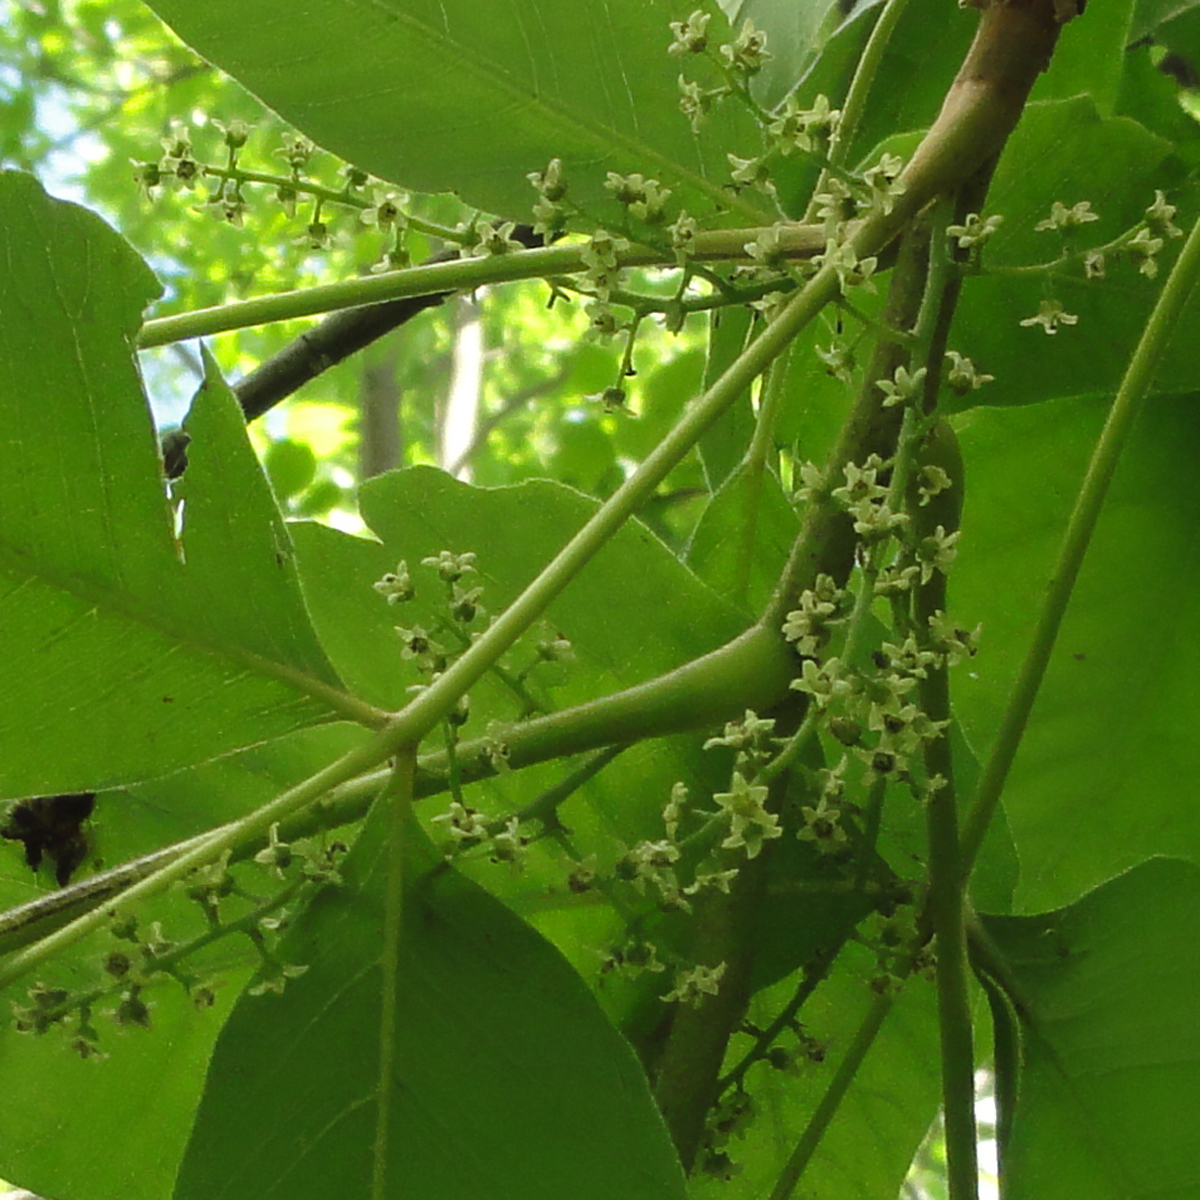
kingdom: Plantae
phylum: Tracheophyta
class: Magnoliopsida
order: Sapindales
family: Anacardiaceae
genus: Toxicodendron
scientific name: Toxicodendron radicans
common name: Poison ivy
